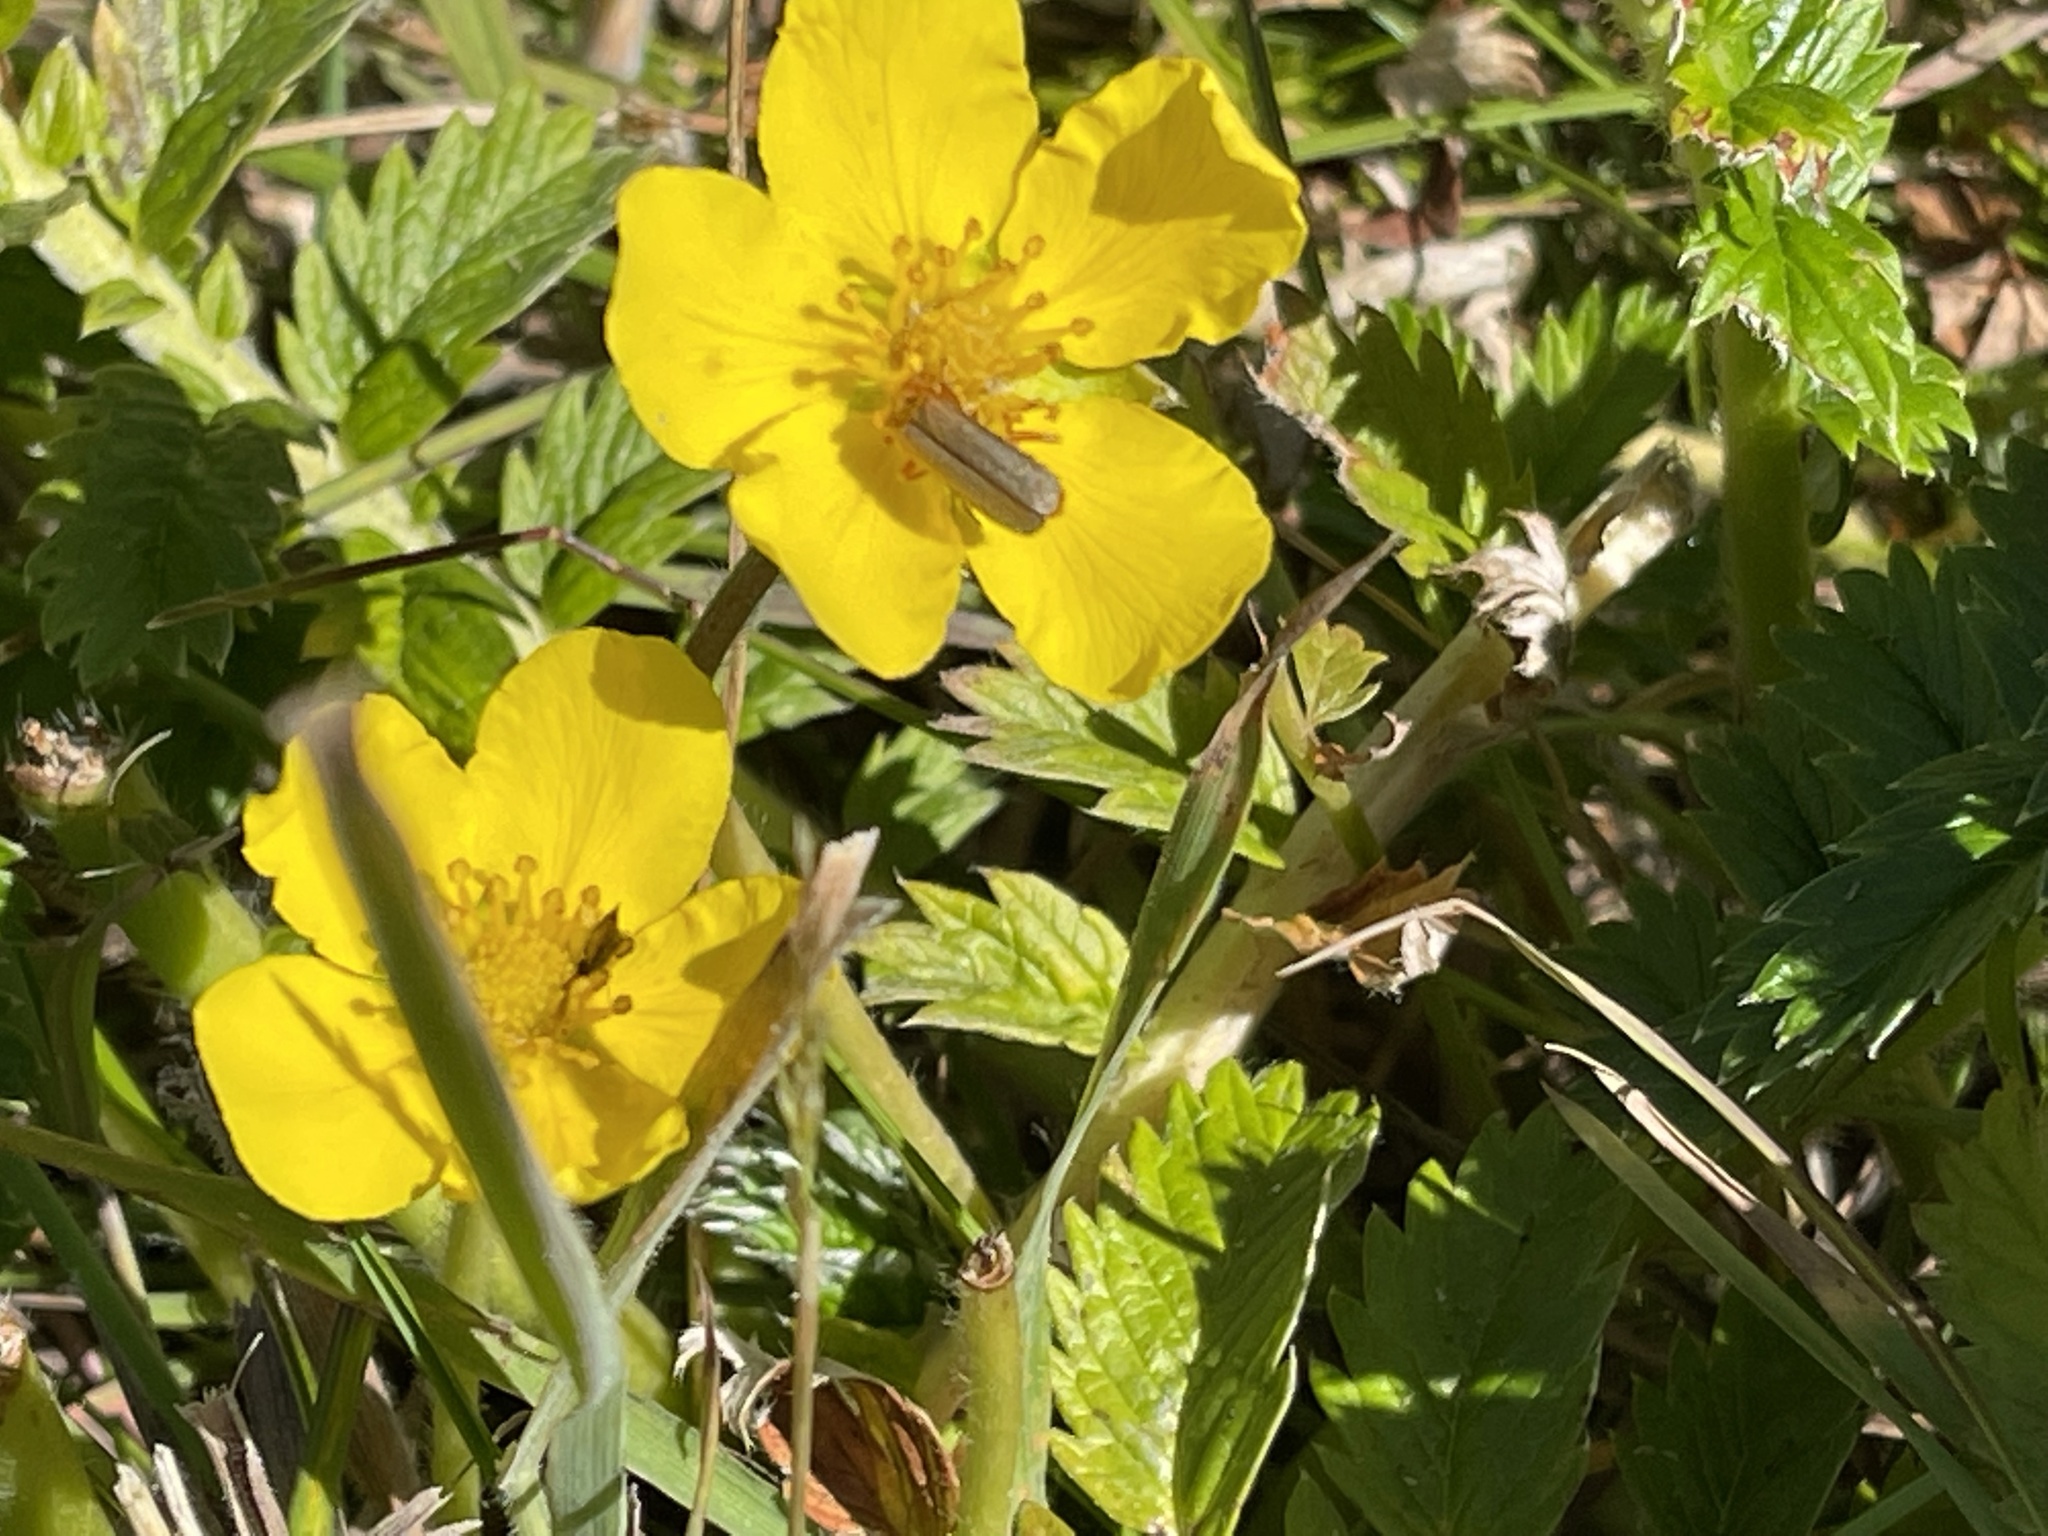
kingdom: Plantae
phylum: Tracheophyta
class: Magnoliopsida
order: Rosales
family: Rosaceae
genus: Argentina
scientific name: Argentina anserina
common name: Common silverweed
